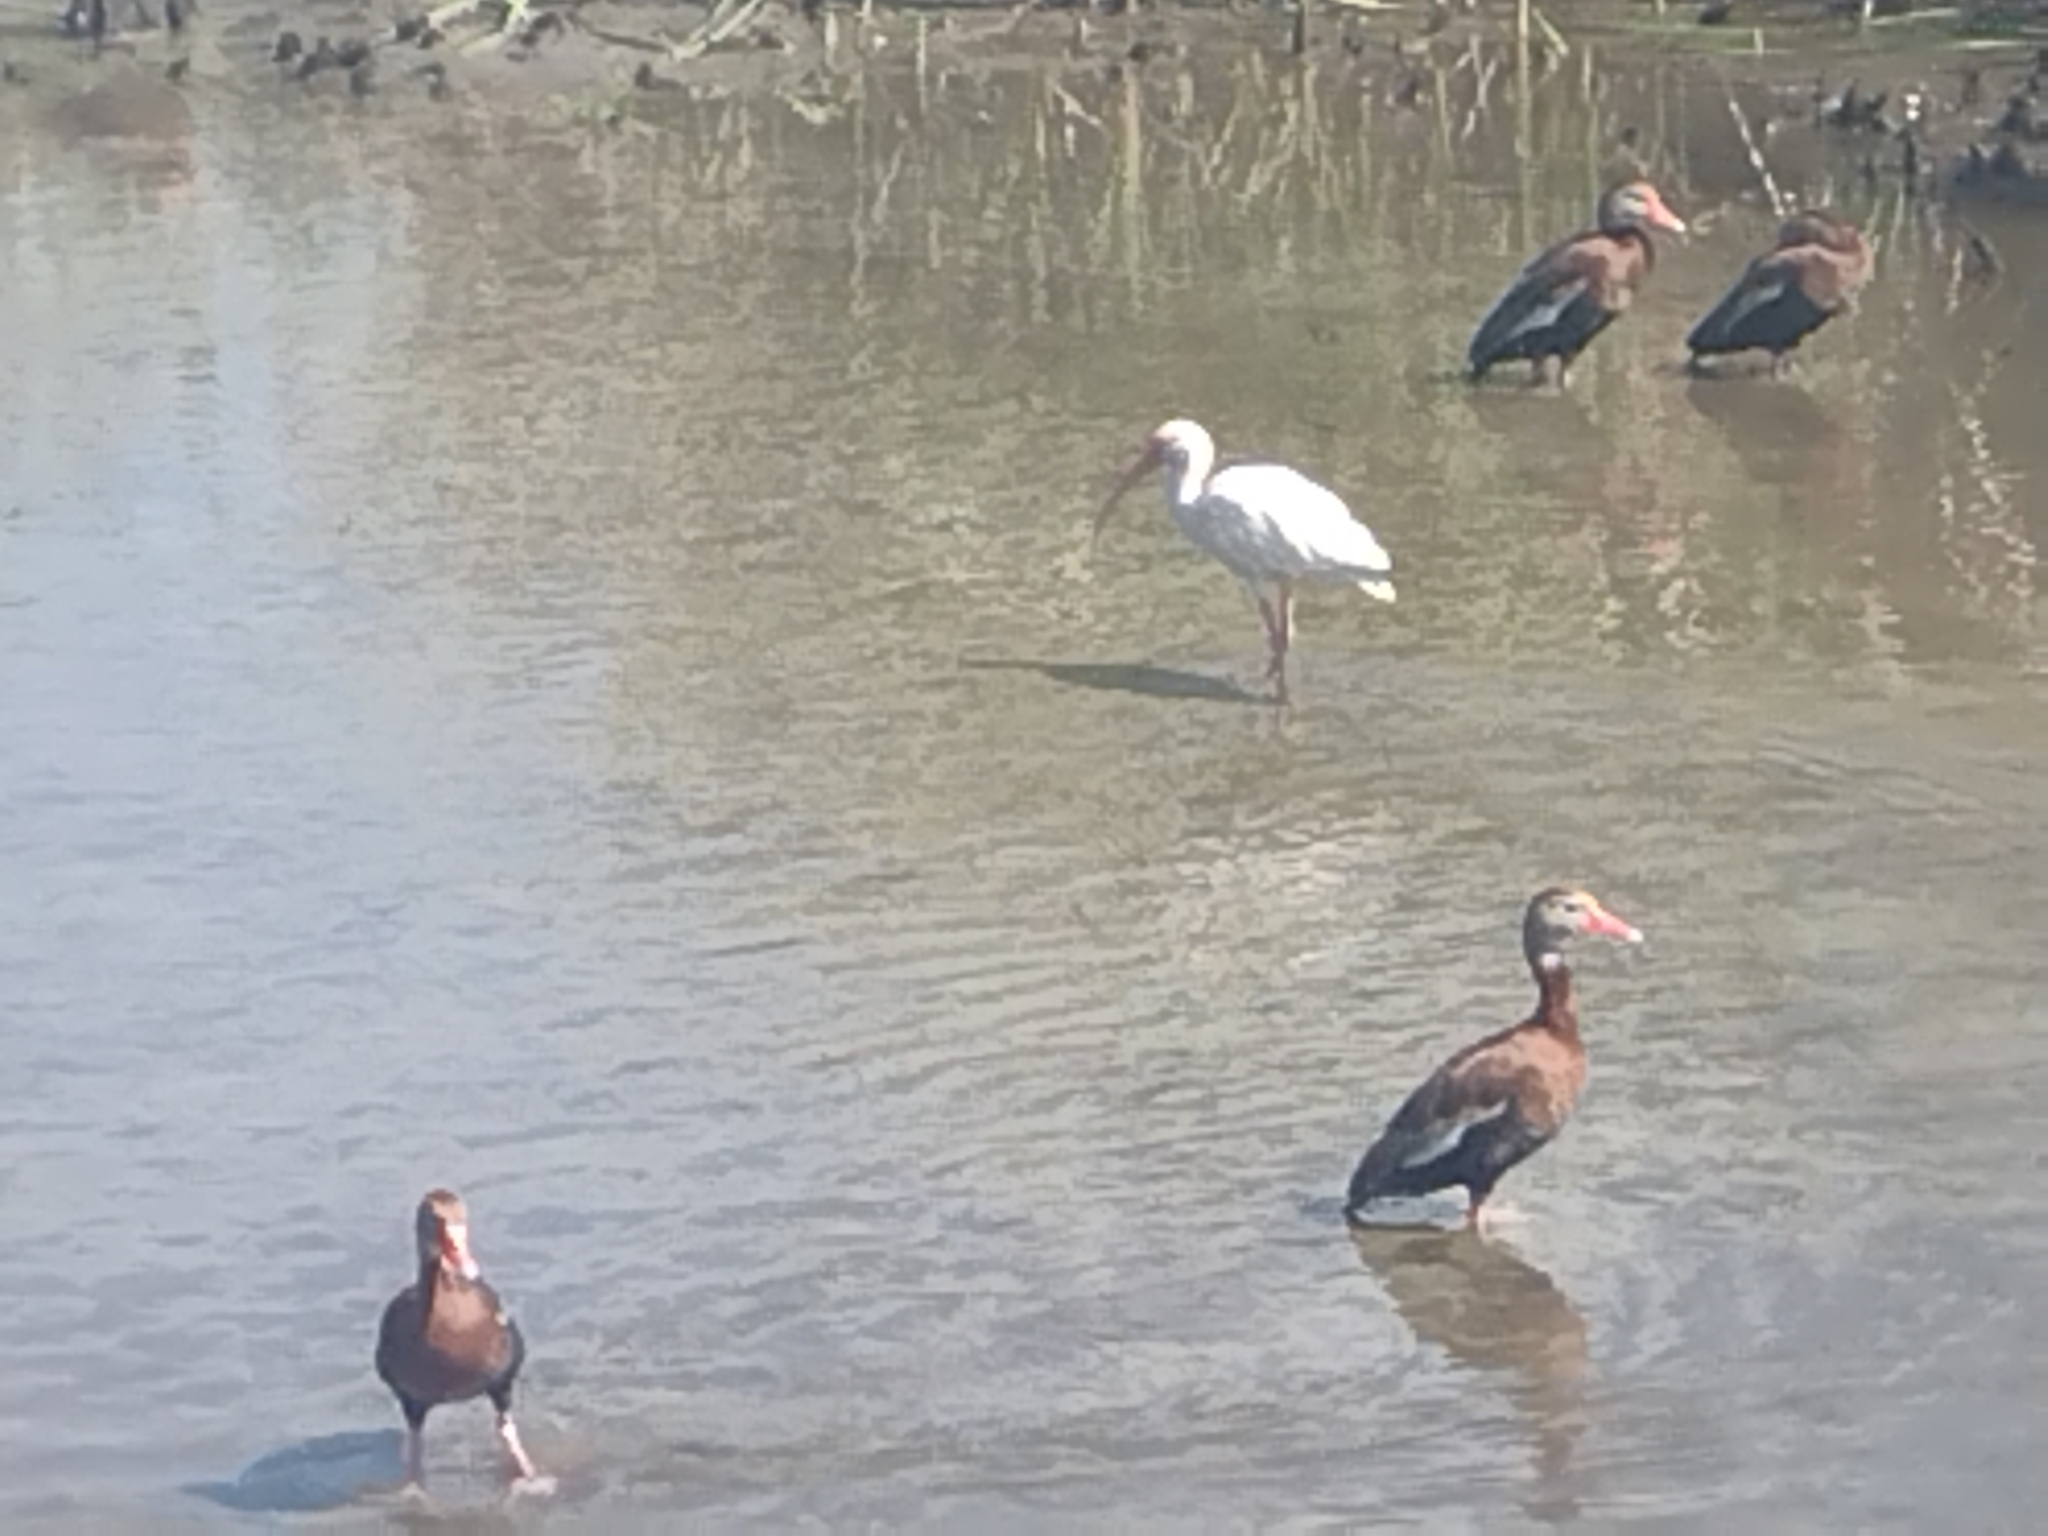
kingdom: Animalia
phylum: Chordata
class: Aves
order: Pelecaniformes
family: Threskiornithidae
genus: Eudocimus
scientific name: Eudocimus albus
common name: White ibis
